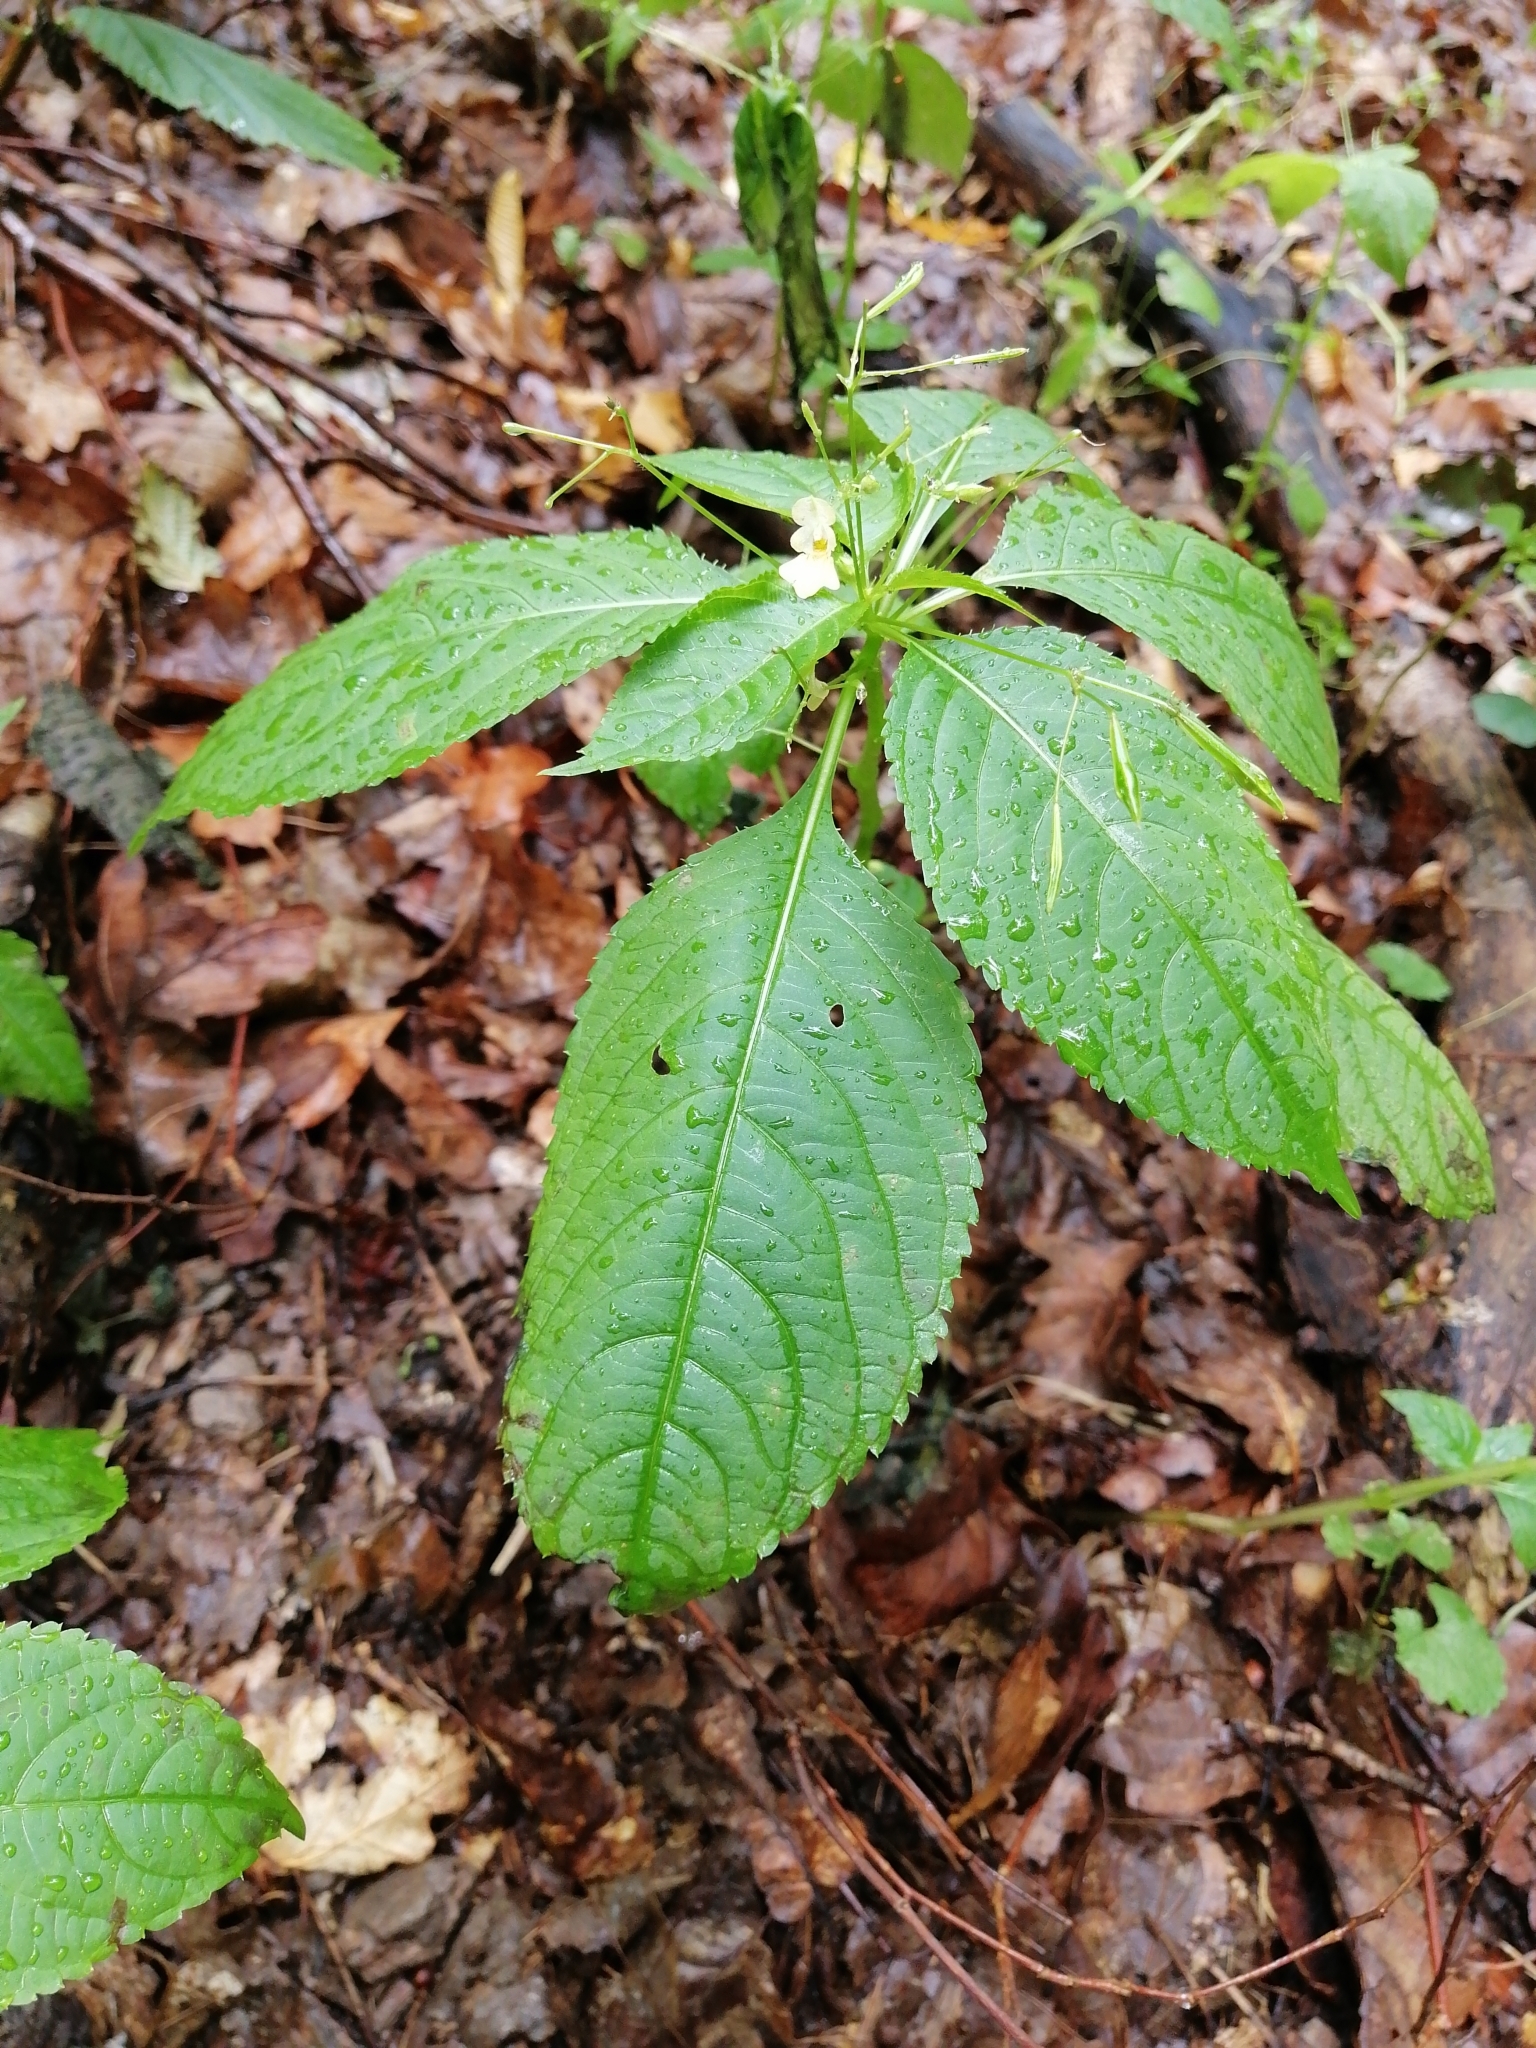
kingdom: Plantae
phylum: Tracheophyta
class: Magnoliopsida
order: Ericales
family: Balsaminaceae
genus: Impatiens
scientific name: Impatiens parviflora
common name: Small balsam
